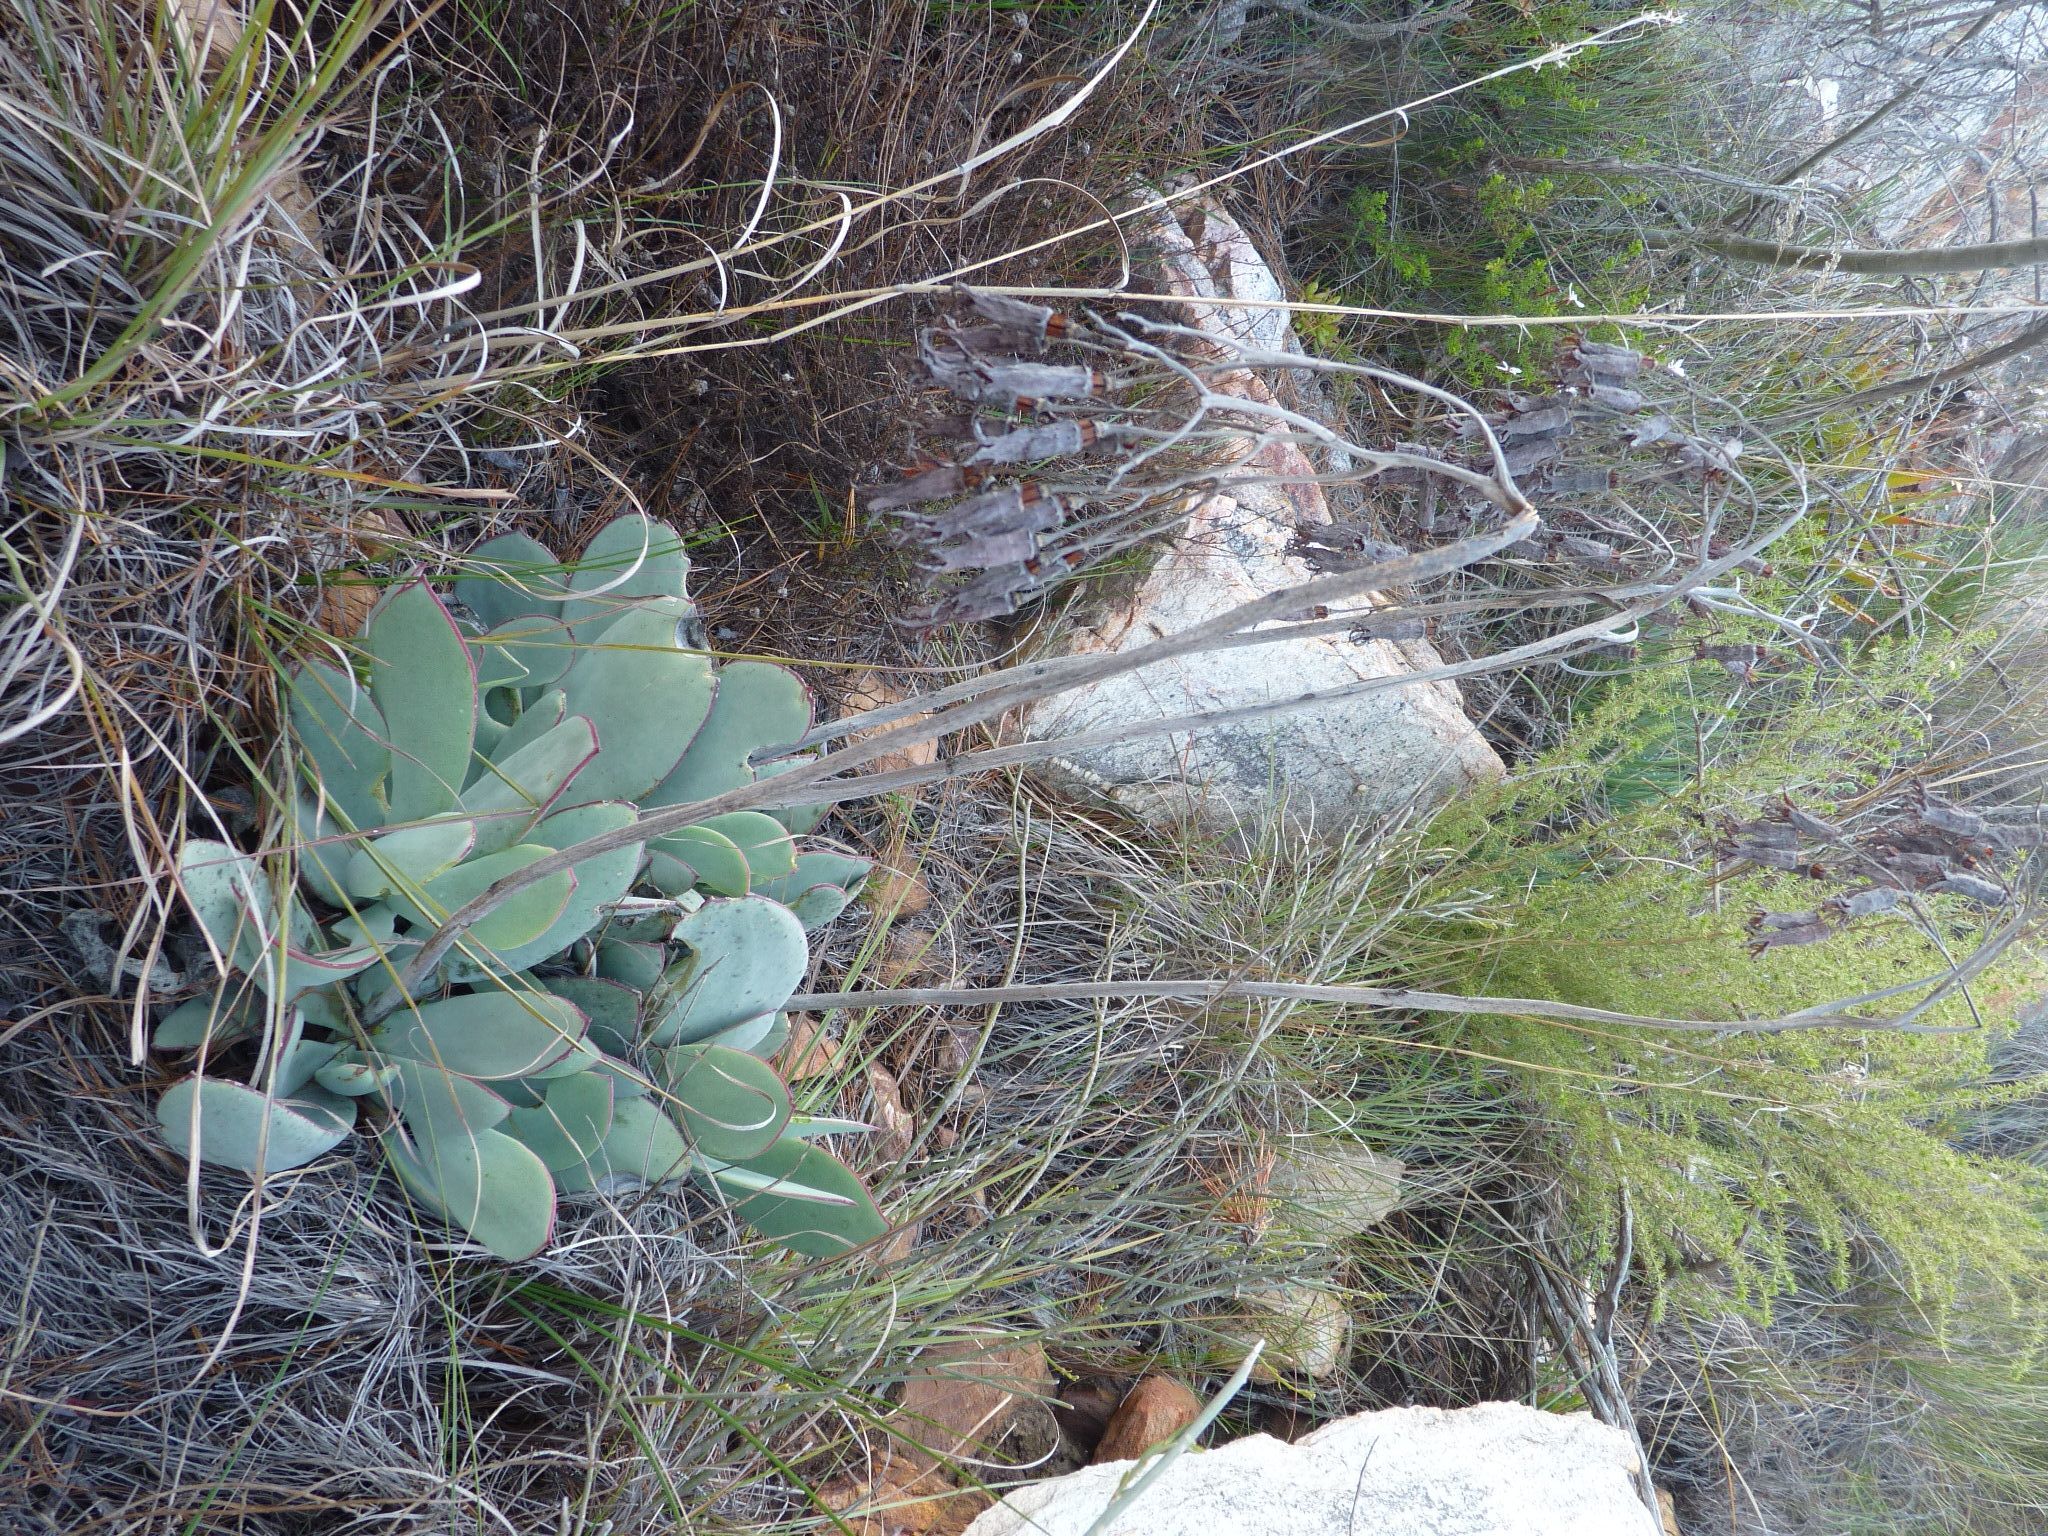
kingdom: Plantae
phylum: Tracheophyta
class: Magnoliopsida
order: Saxifragales
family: Crassulaceae
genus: Cotyledon
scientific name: Cotyledon orbiculata
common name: Pig's ear
